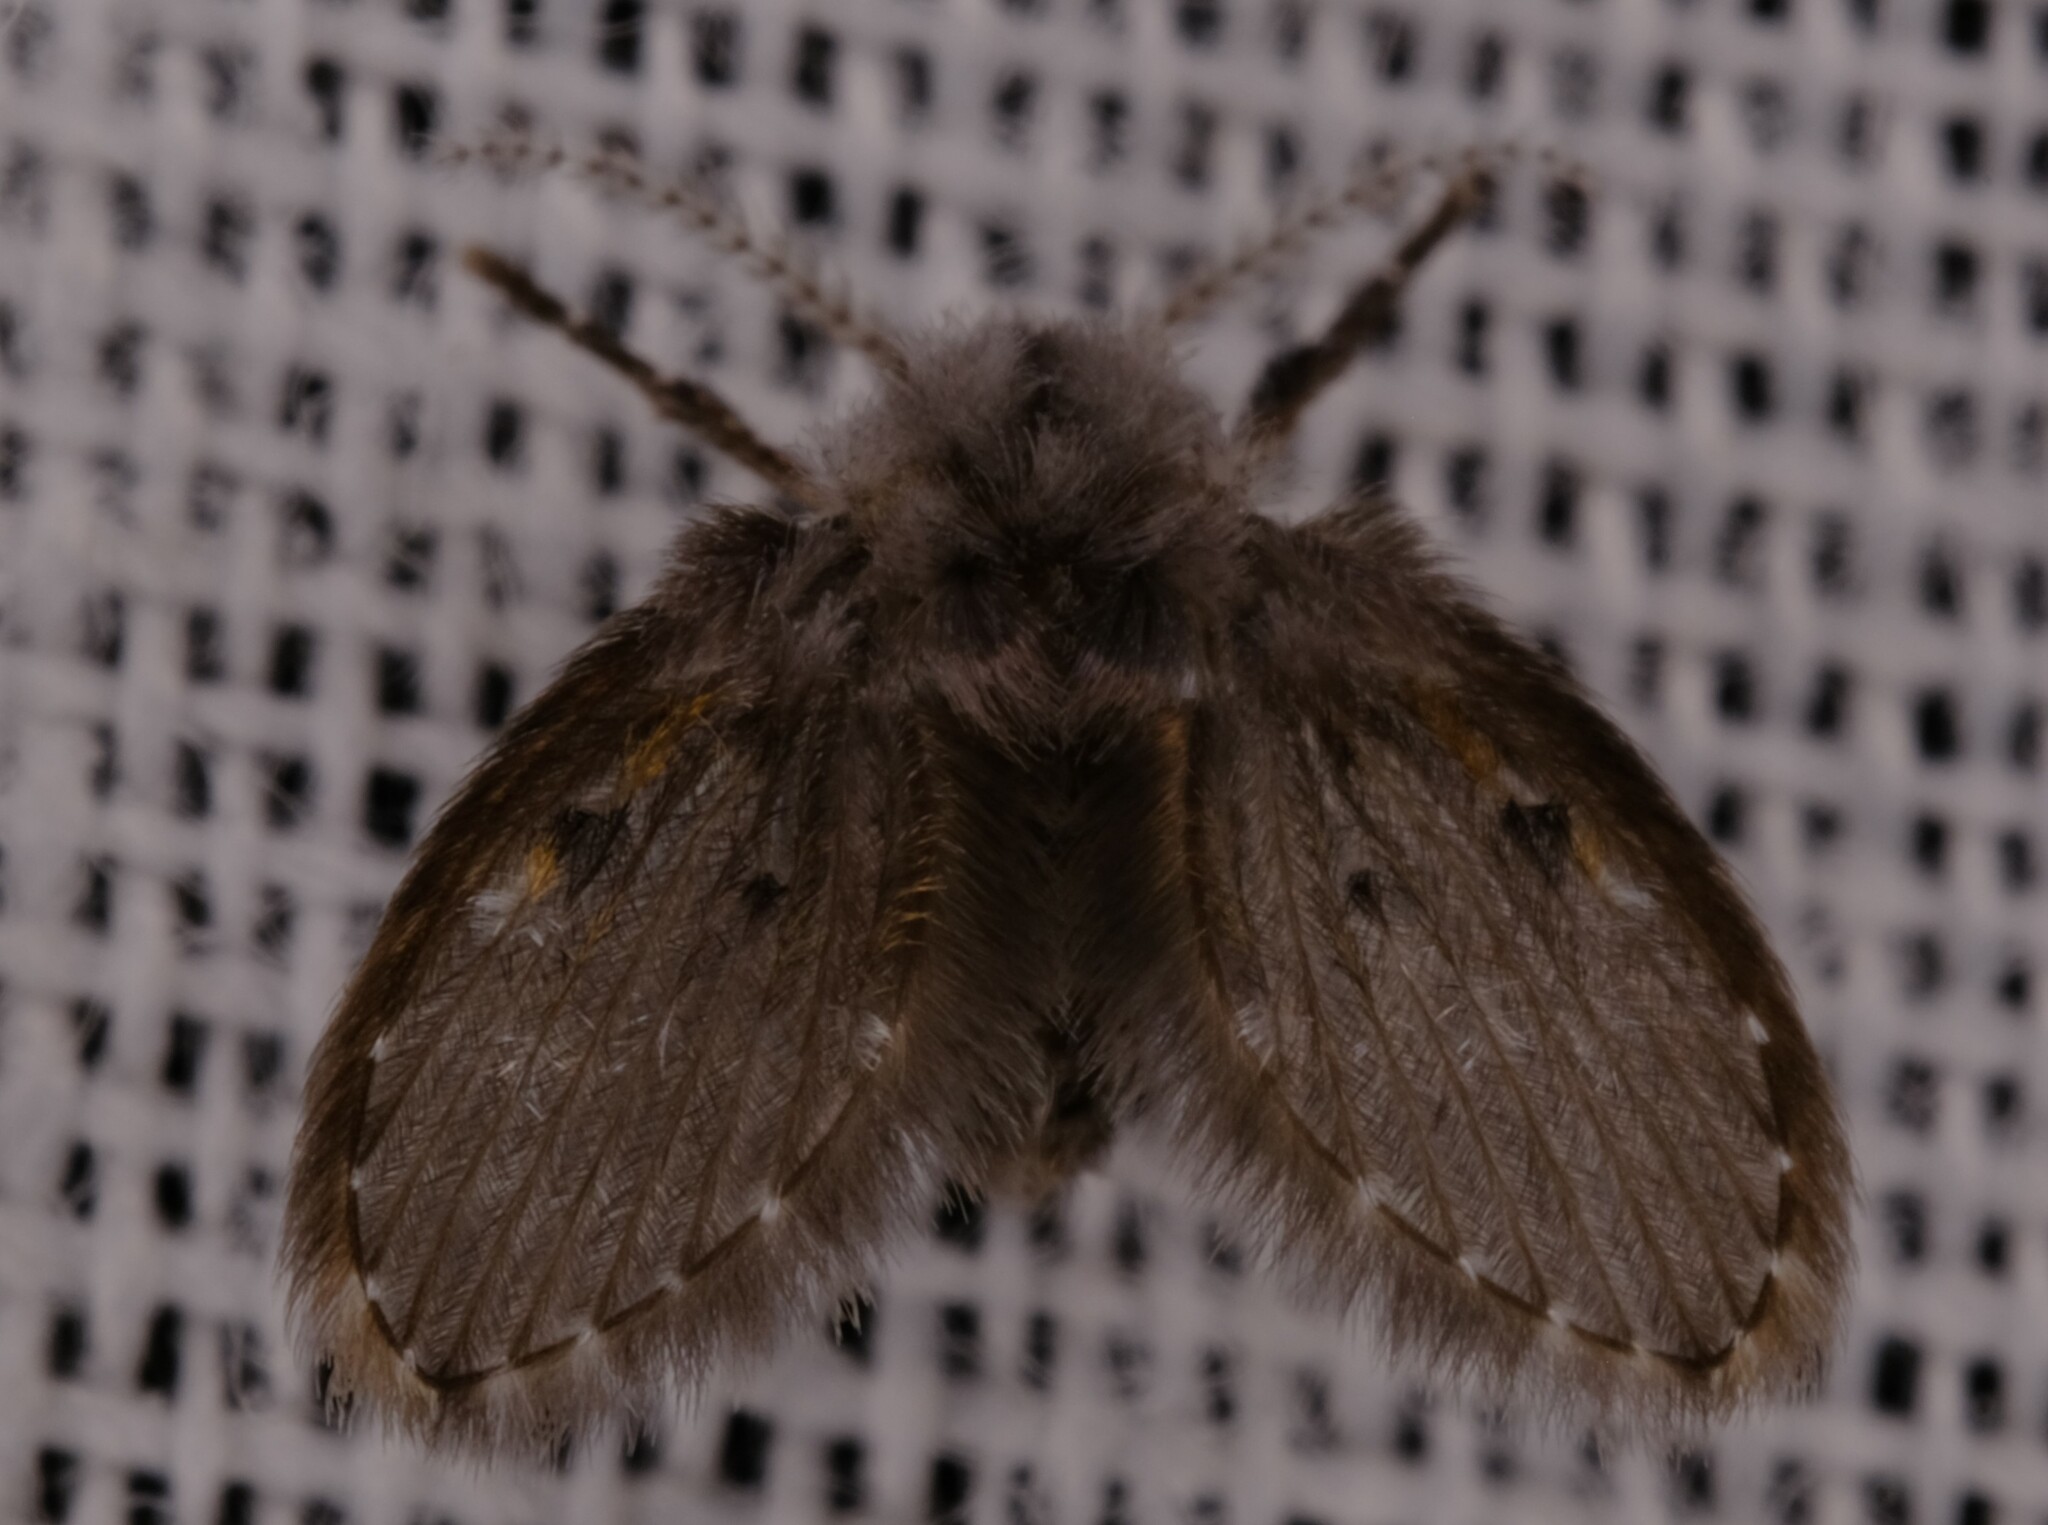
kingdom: Animalia
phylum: Arthropoda
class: Insecta
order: Diptera
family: Psychodidae
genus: Clogmia
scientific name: Clogmia albipunctatus
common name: White-spotted moth fly
